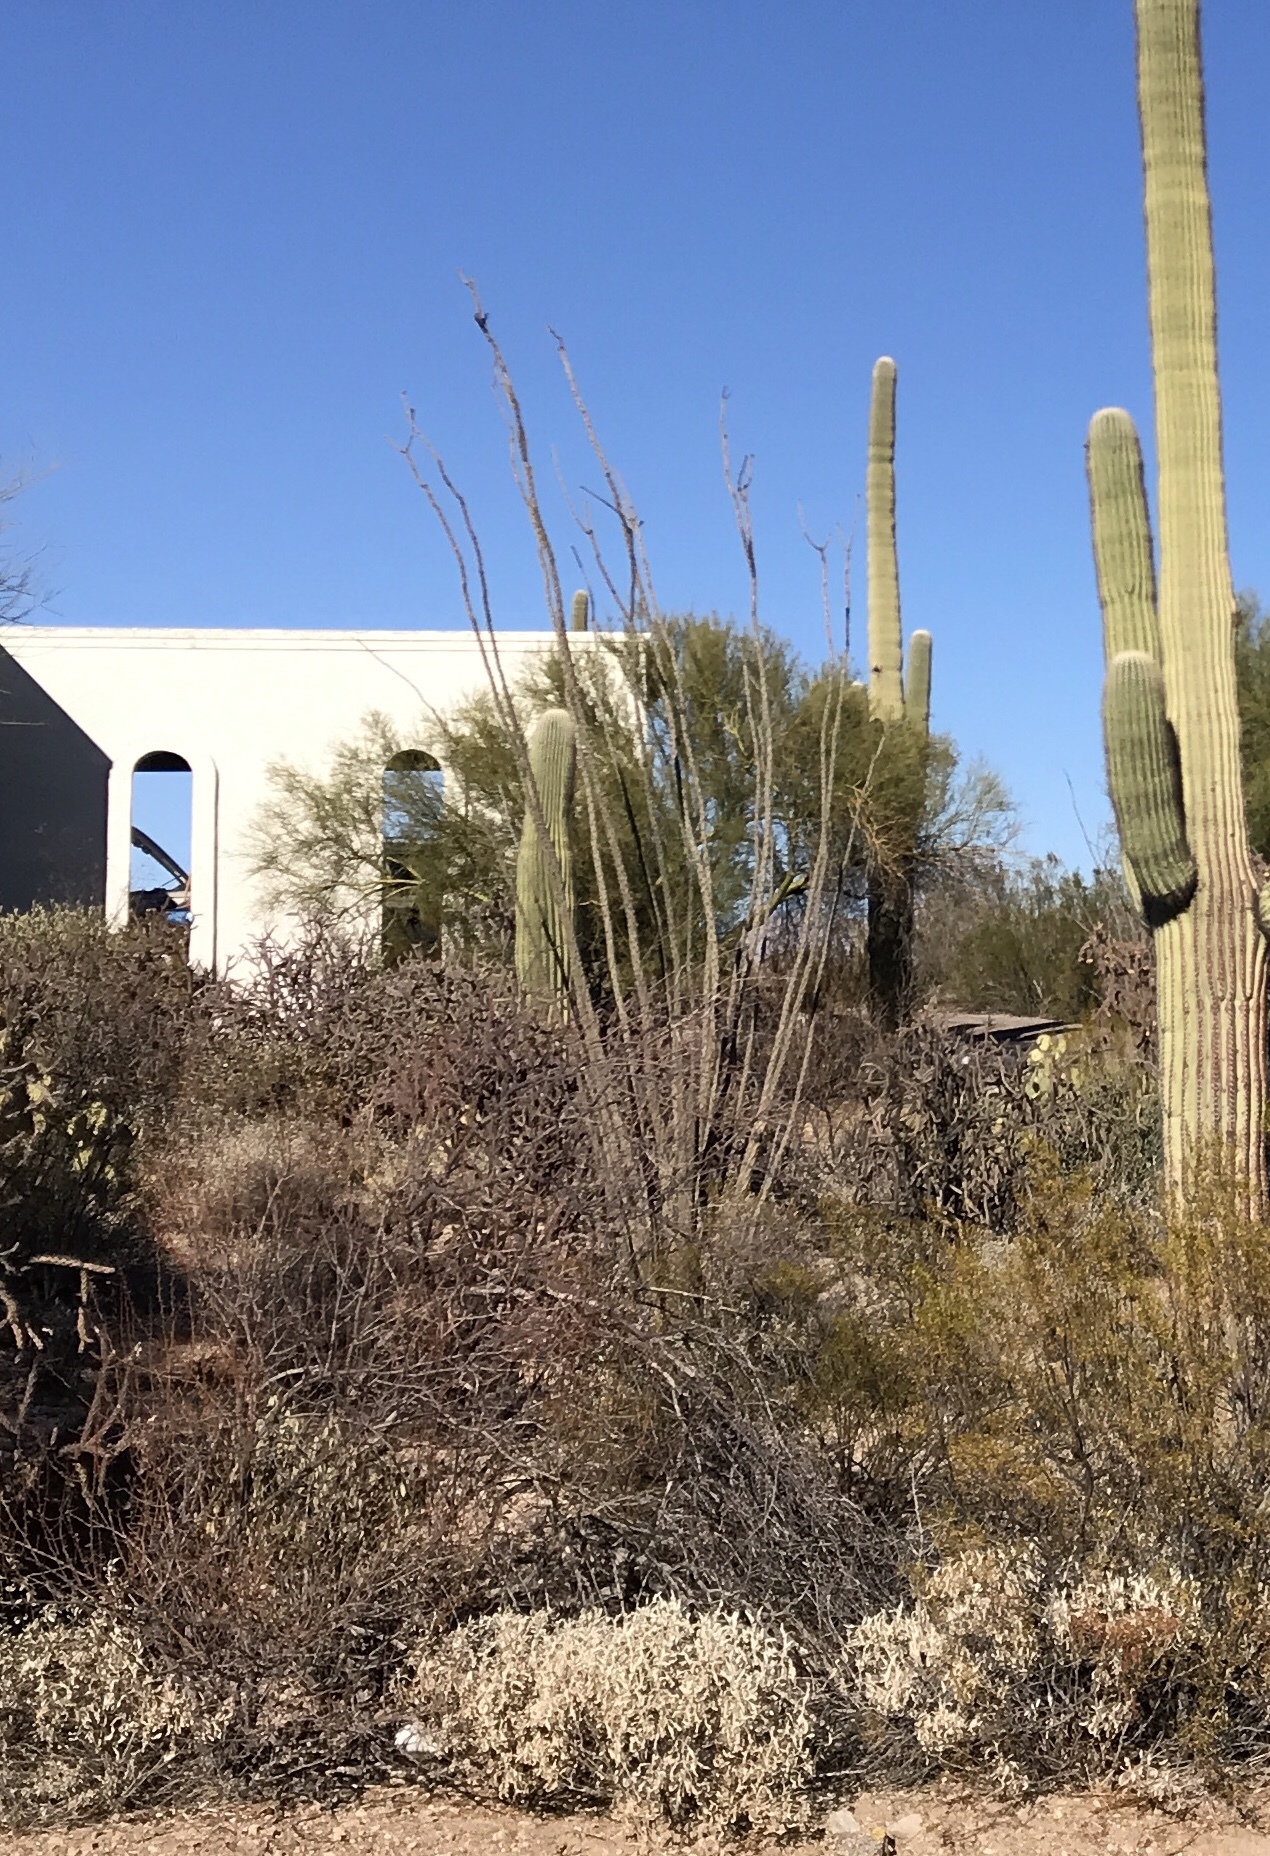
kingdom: Plantae
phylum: Tracheophyta
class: Magnoliopsida
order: Ericales
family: Fouquieriaceae
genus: Fouquieria
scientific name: Fouquieria splendens
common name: Vine-cactus
